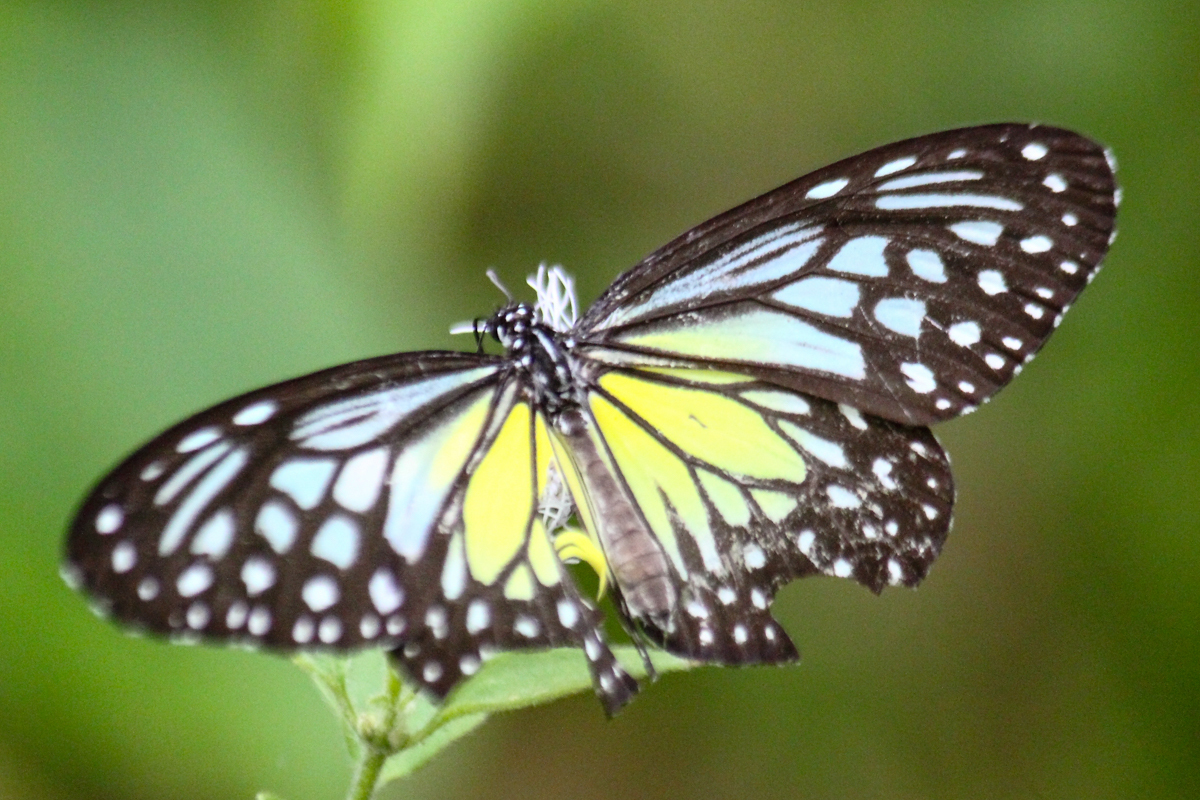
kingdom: Animalia
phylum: Arthropoda
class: Insecta
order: Lepidoptera
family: Nymphalidae
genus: Parantica
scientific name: Parantica aspasia
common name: Yellow glassy tiger
